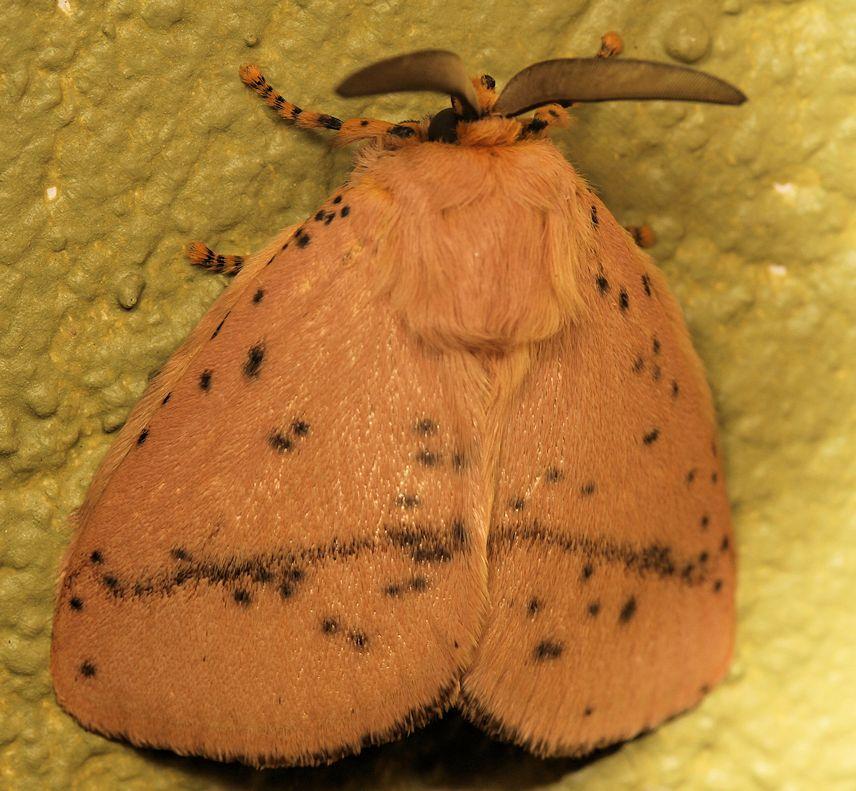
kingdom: Animalia
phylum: Arthropoda
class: Insecta
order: Lepidoptera
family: Limacodidae
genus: Chrysopoloma
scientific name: Chrysopoloma restricta
